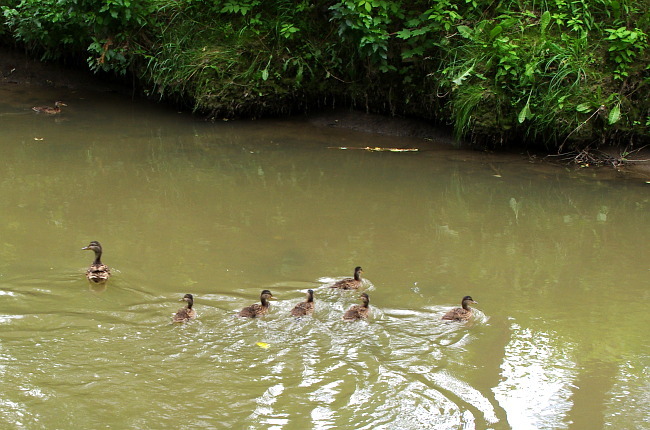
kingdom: Animalia
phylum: Chordata
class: Aves
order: Anseriformes
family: Anatidae
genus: Anas
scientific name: Anas platyrhynchos
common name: Mallard
